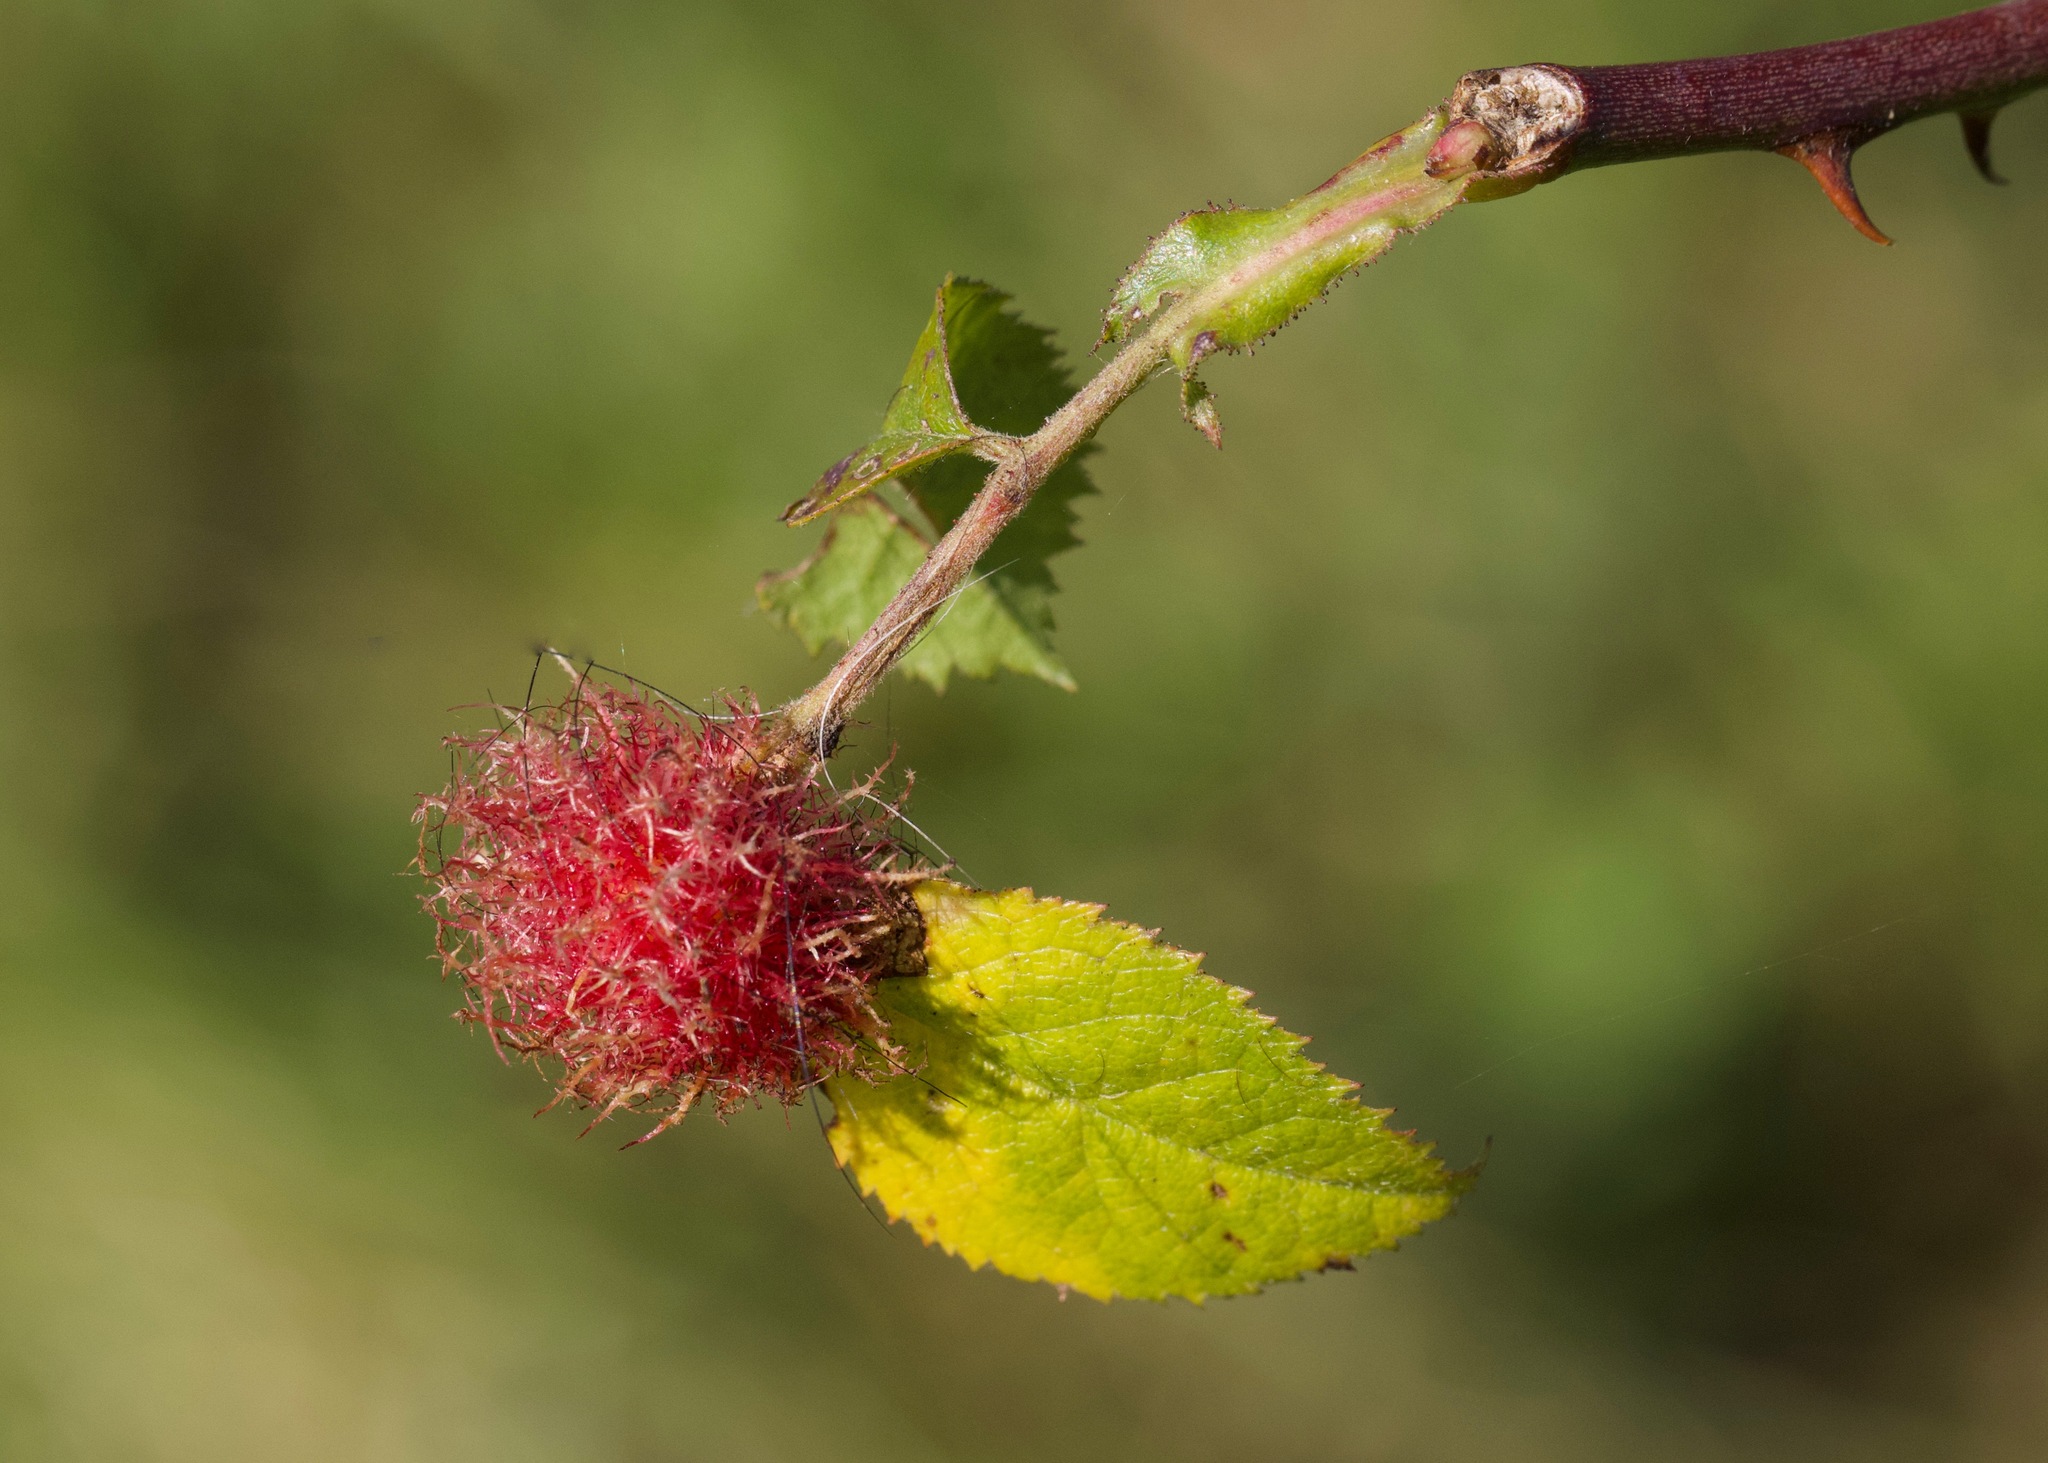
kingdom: Animalia
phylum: Arthropoda
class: Insecta
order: Hymenoptera
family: Cynipidae
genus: Diplolepis
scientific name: Diplolepis rosae
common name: Bedeguar gall
